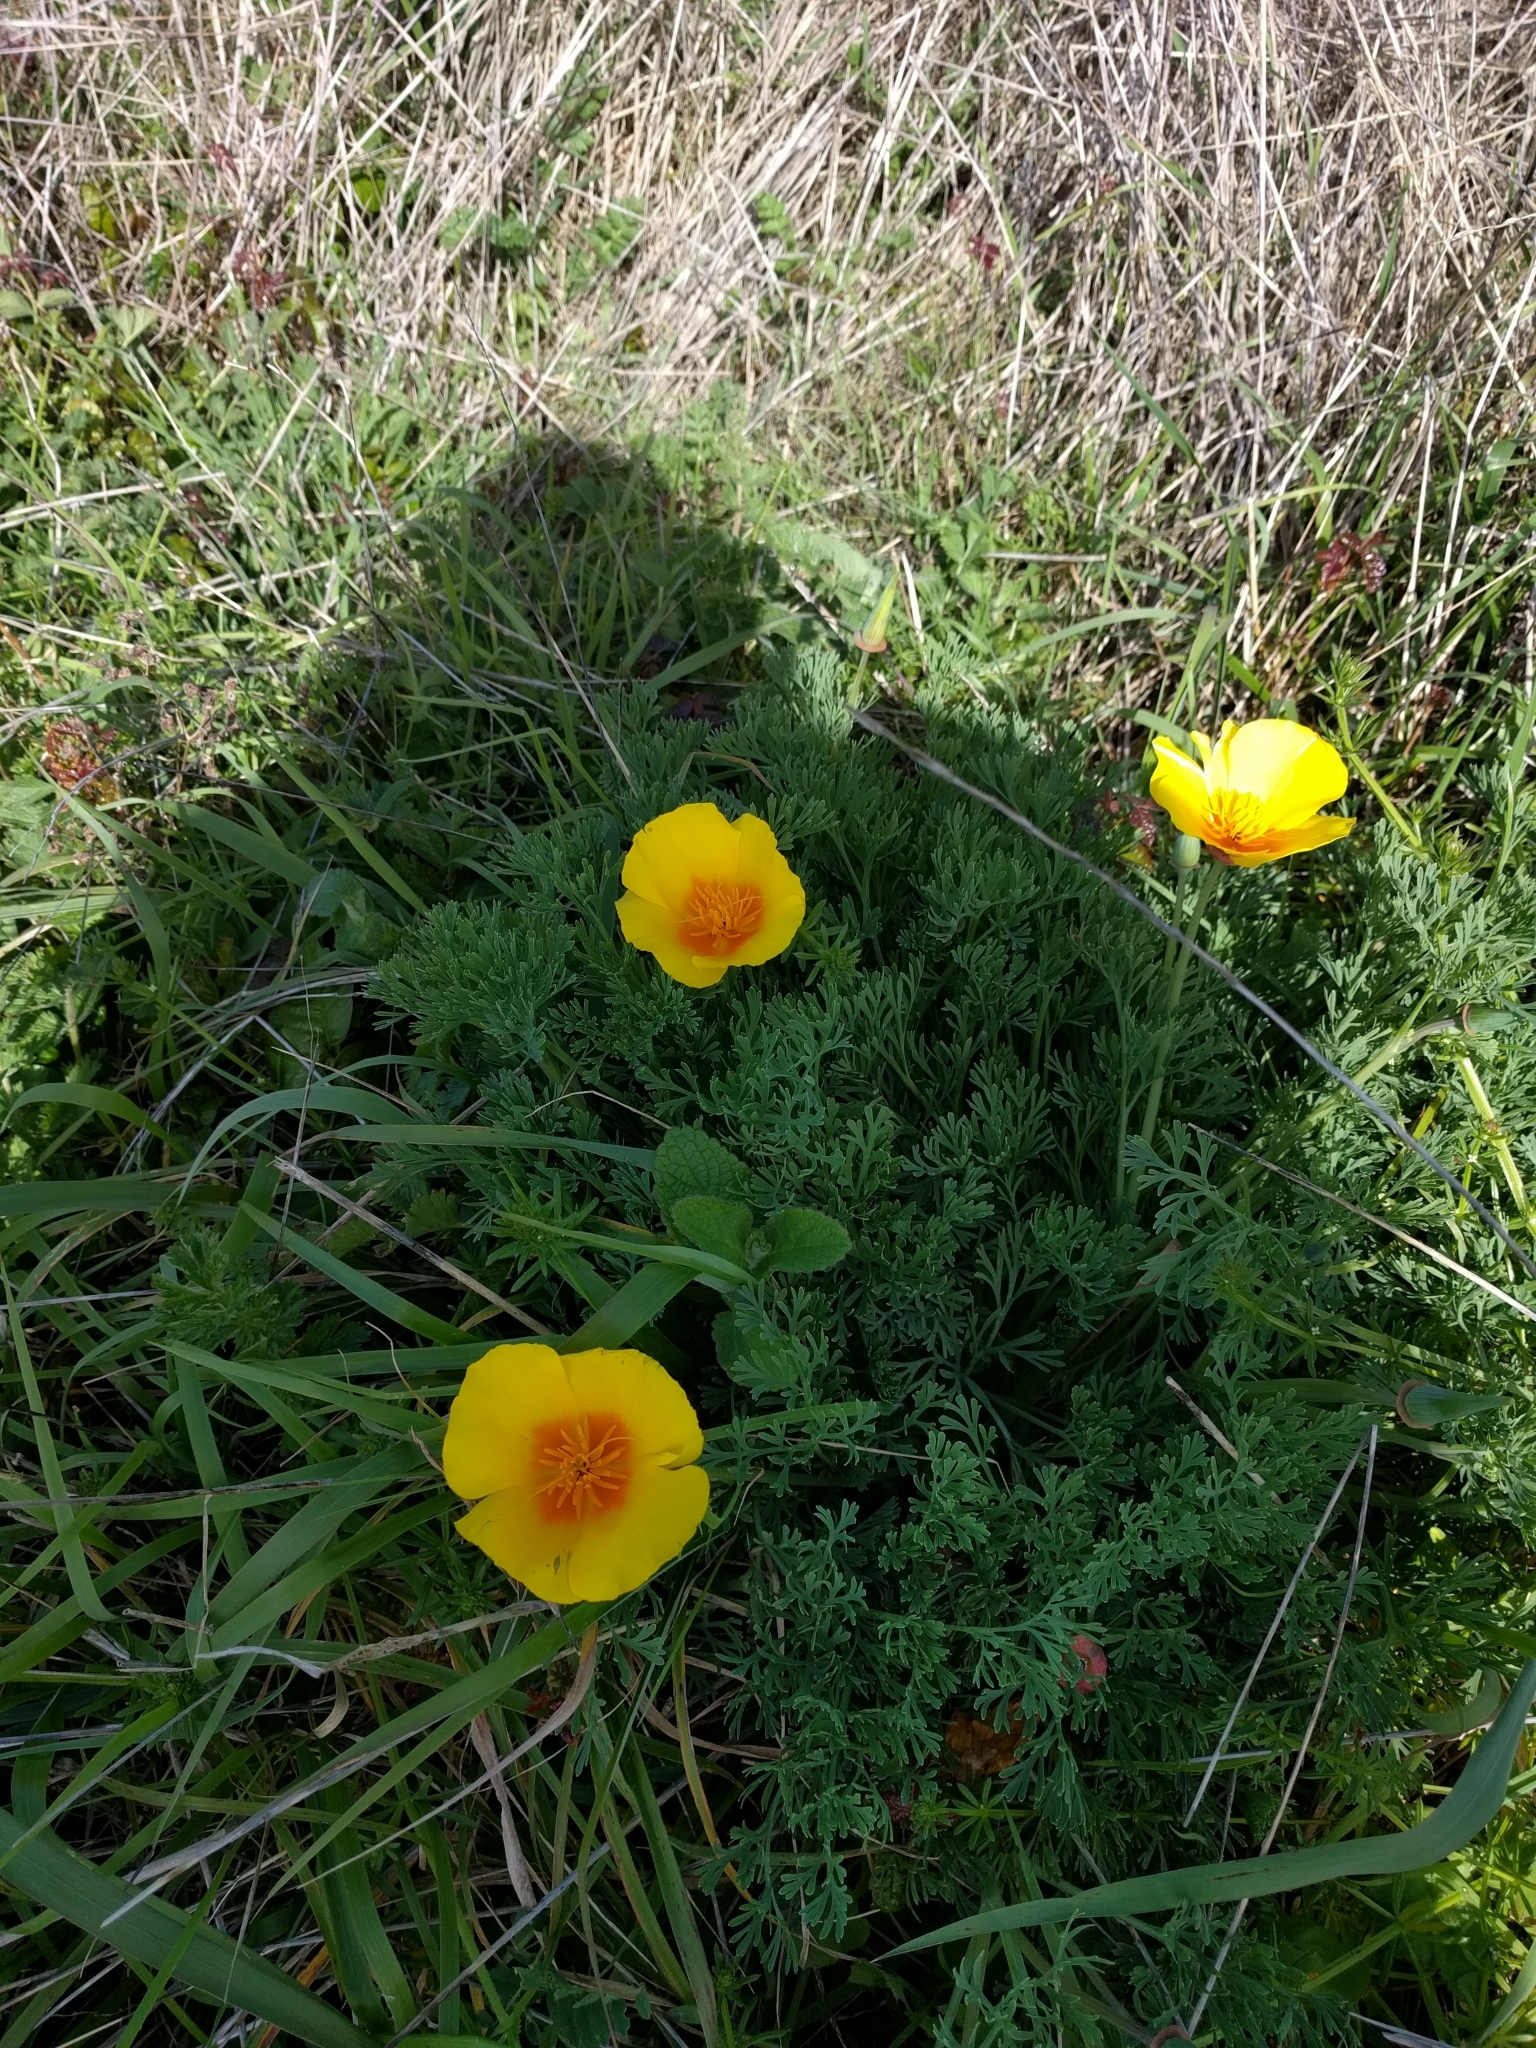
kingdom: Plantae
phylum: Tracheophyta
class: Magnoliopsida
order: Ranunculales
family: Papaveraceae
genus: Eschscholzia
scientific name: Eschscholzia californica
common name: California poppy
